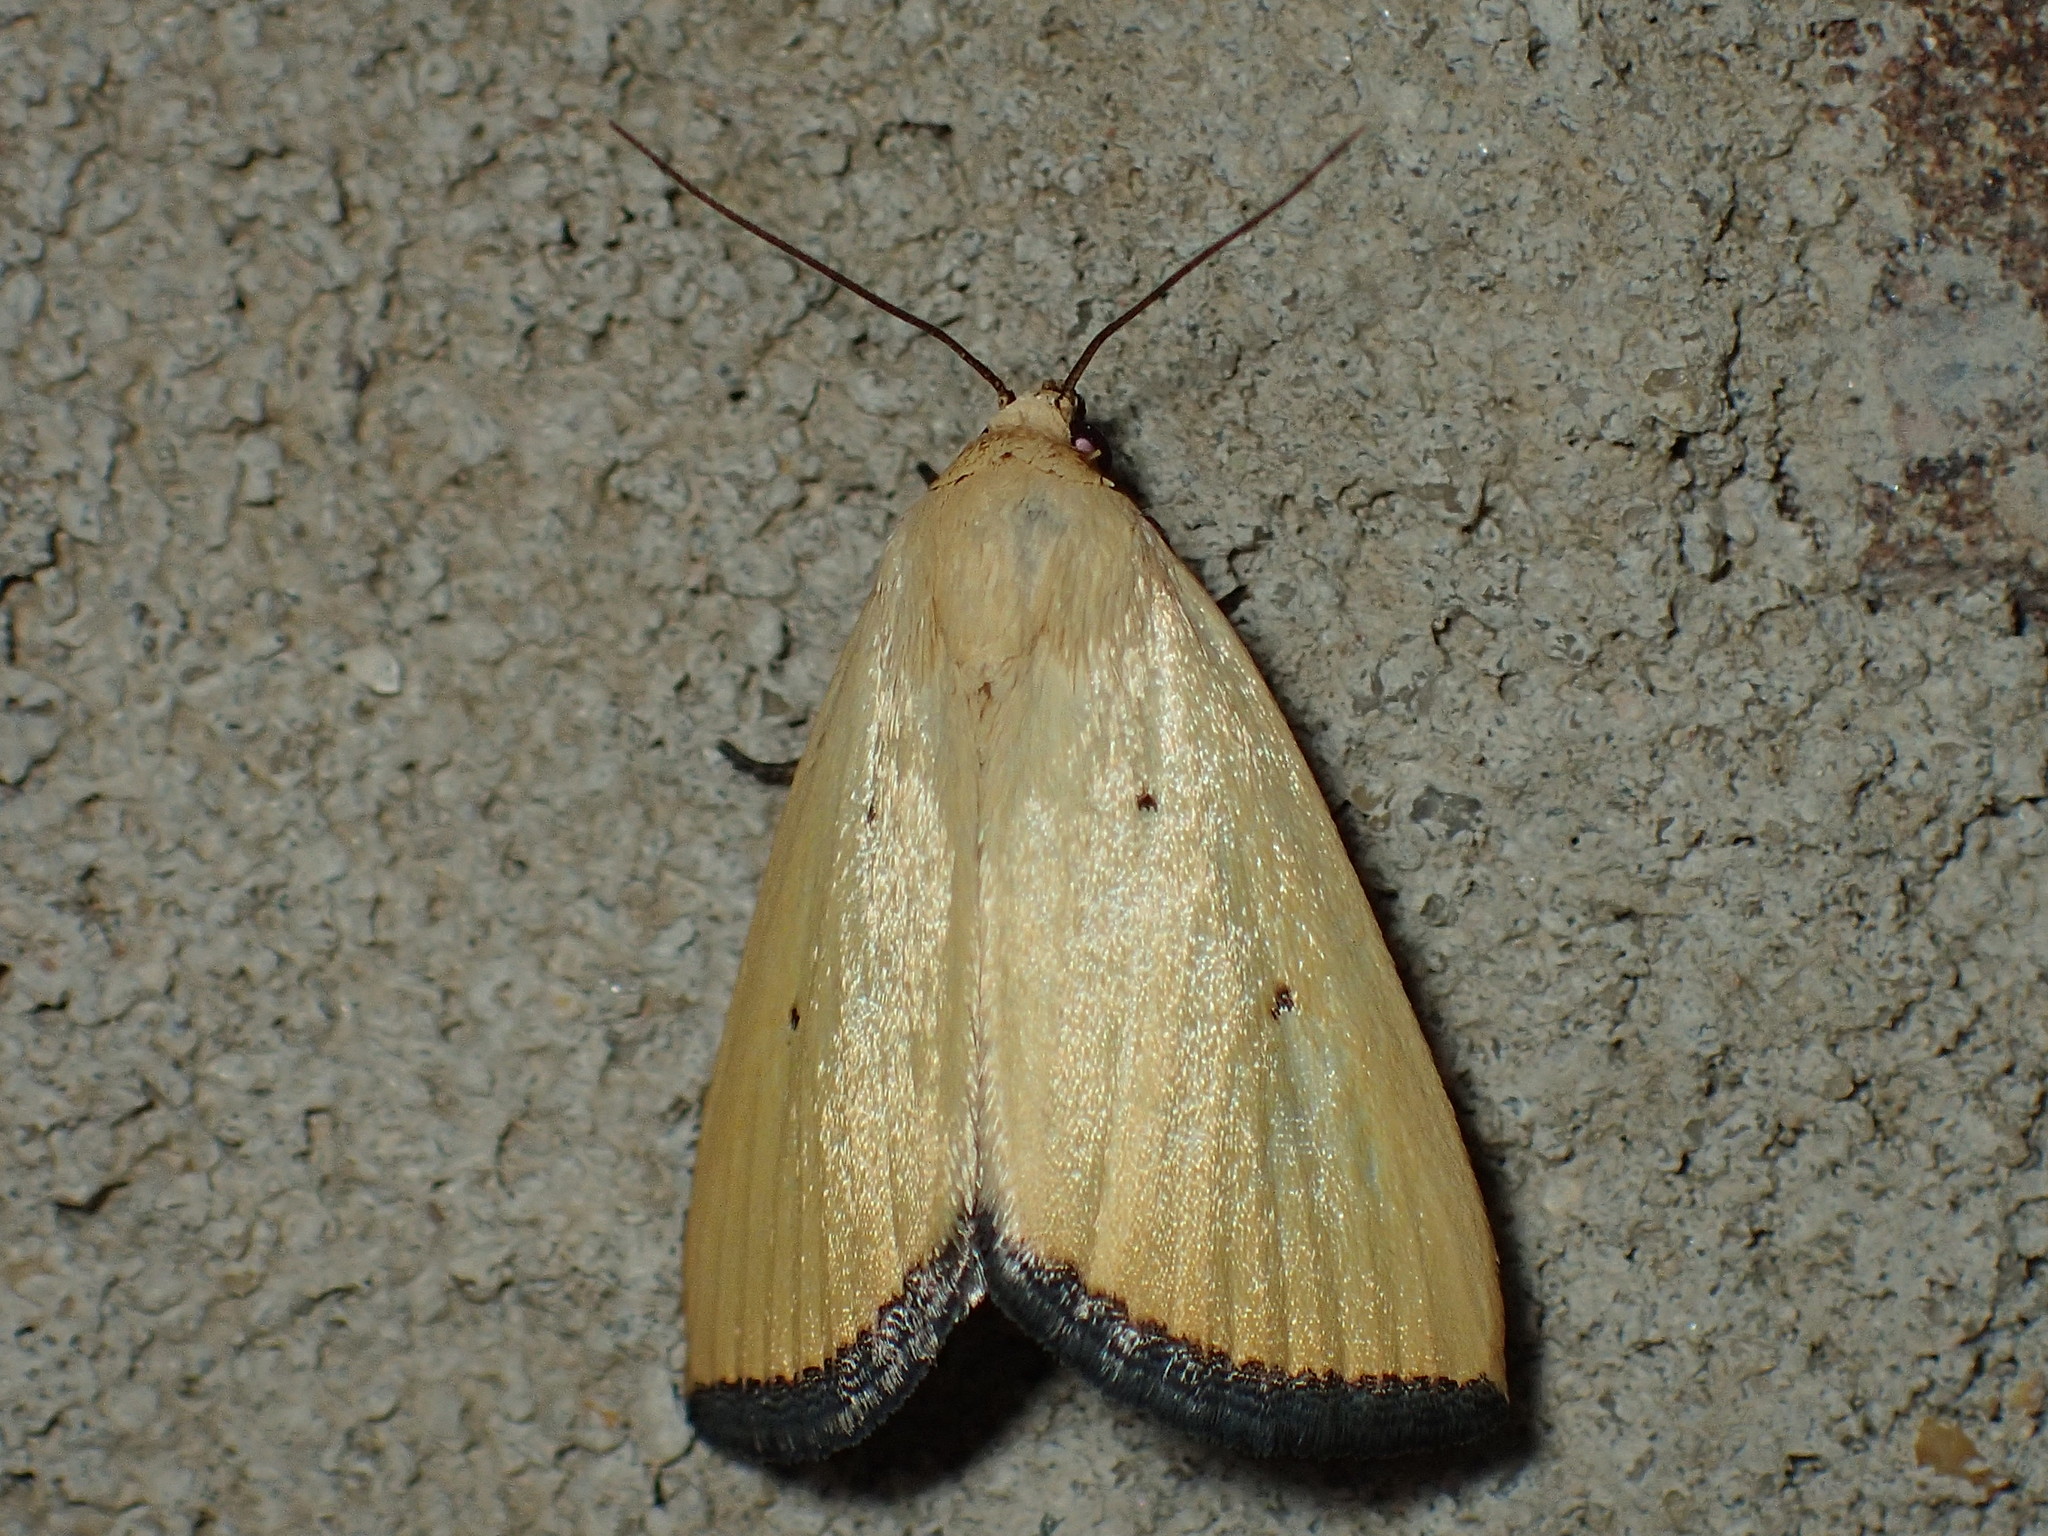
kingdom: Animalia
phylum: Arthropoda
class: Insecta
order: Lepidoptera
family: Noctuidae
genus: Marimatha
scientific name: Marimatha nigrofimbria
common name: Black-bordered lemon moth
